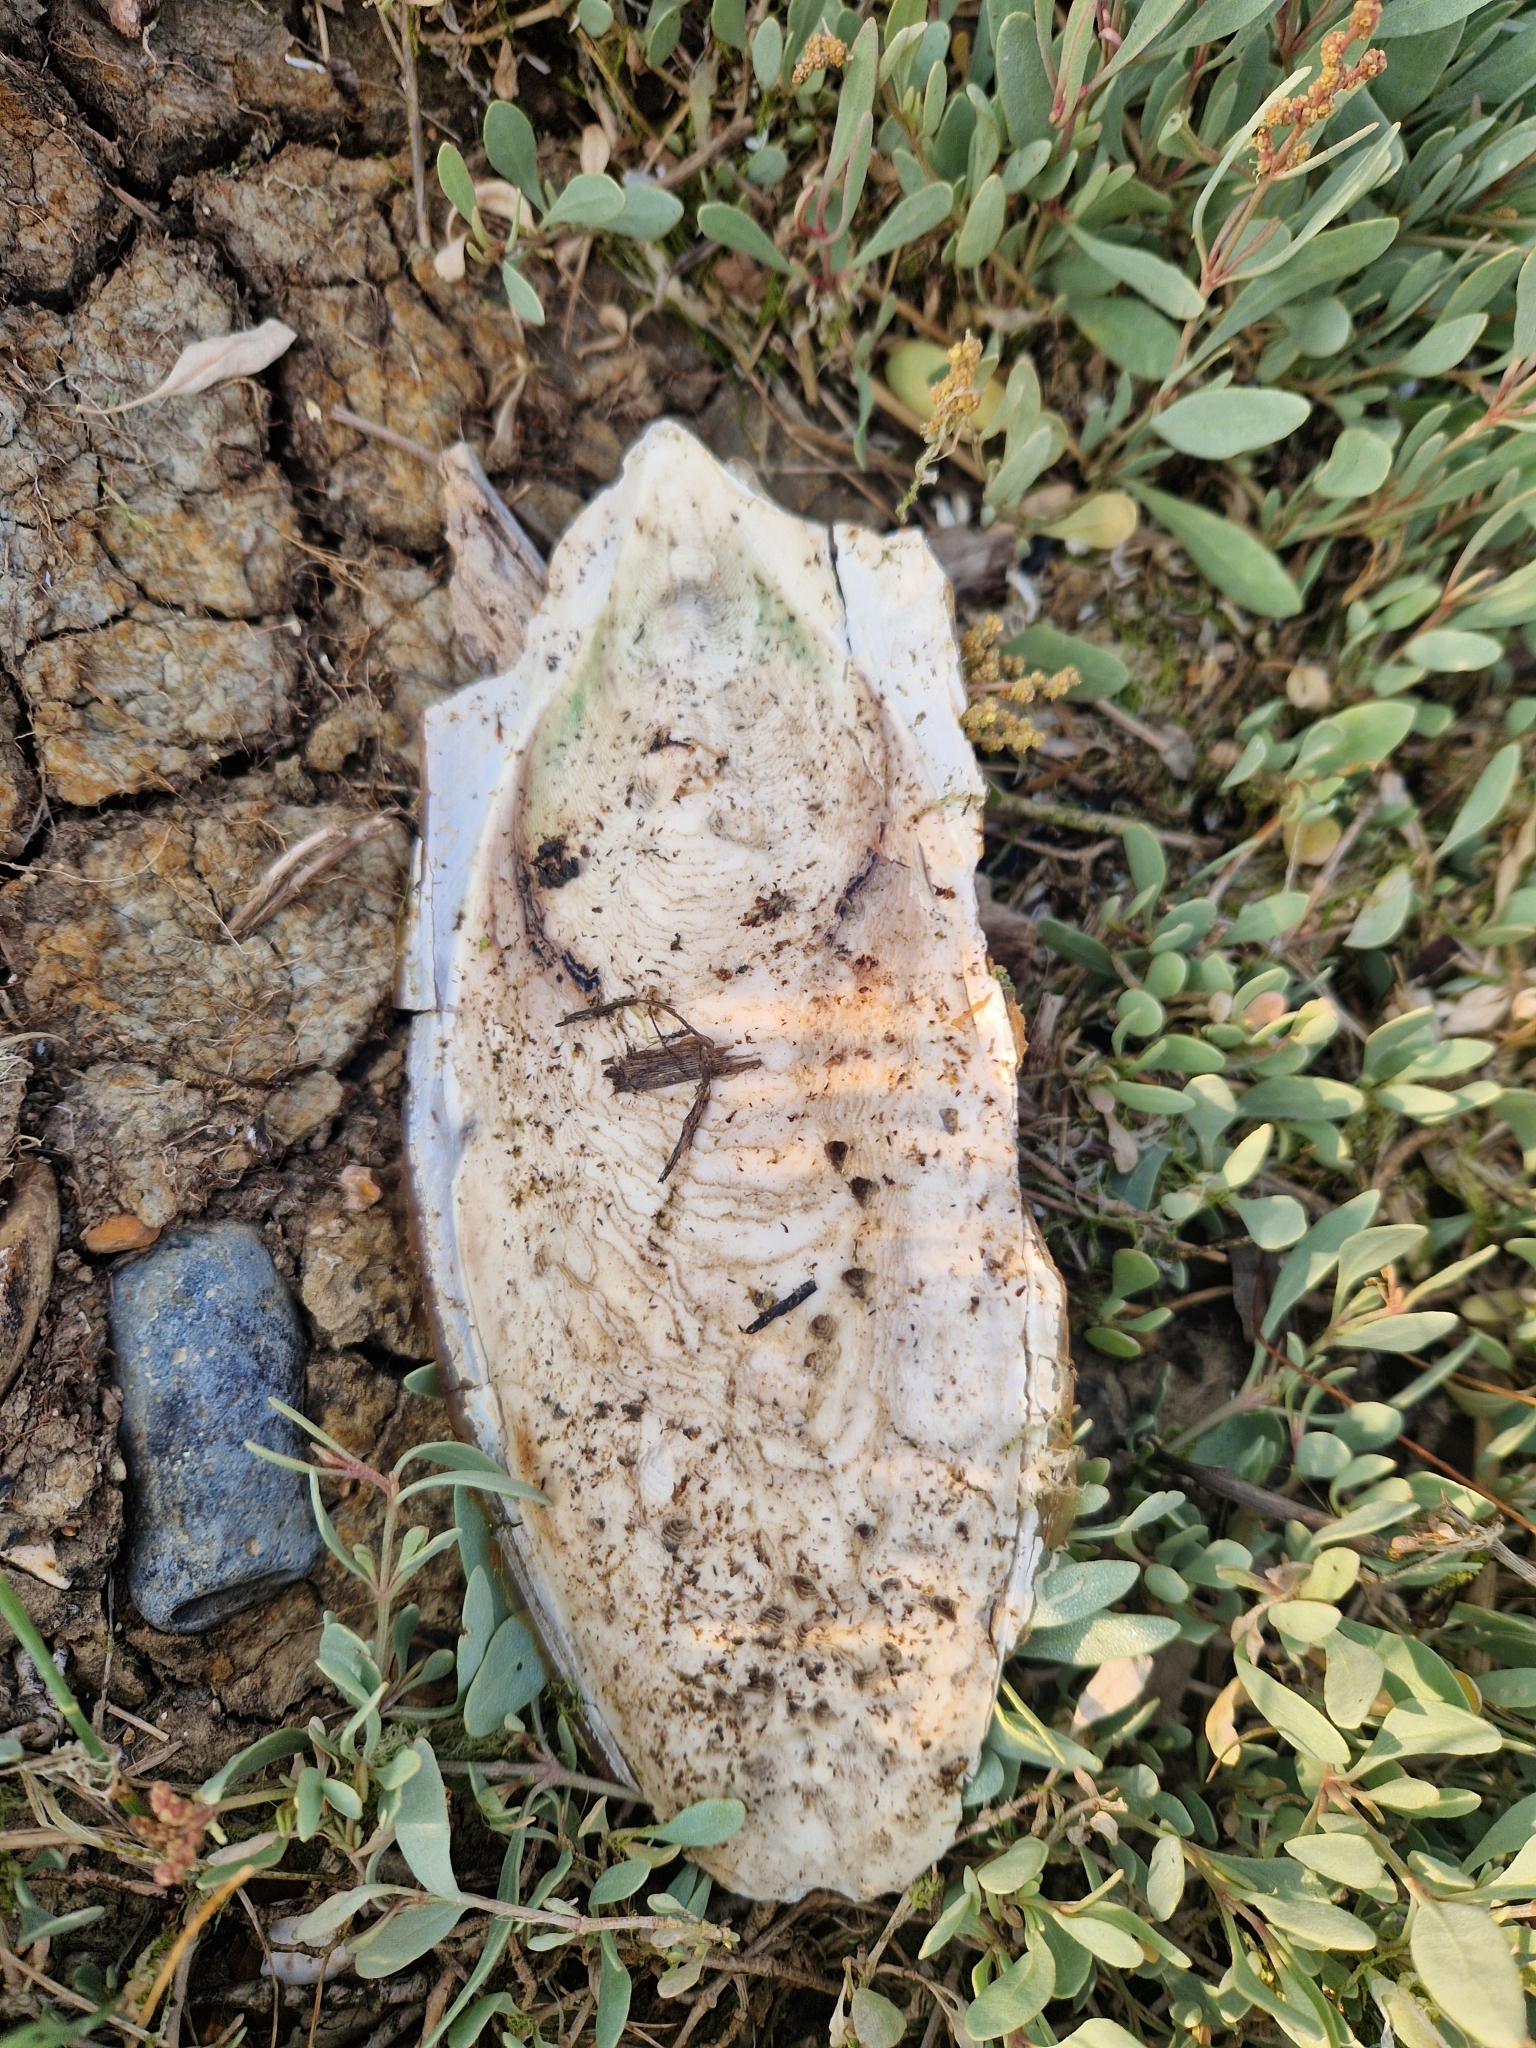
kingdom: Animalia
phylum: Mollusca
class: Cephalopoda
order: Sepiida
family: Sepiidae
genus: Sepia
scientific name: Sepia officinalis
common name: Common cuttlefish
